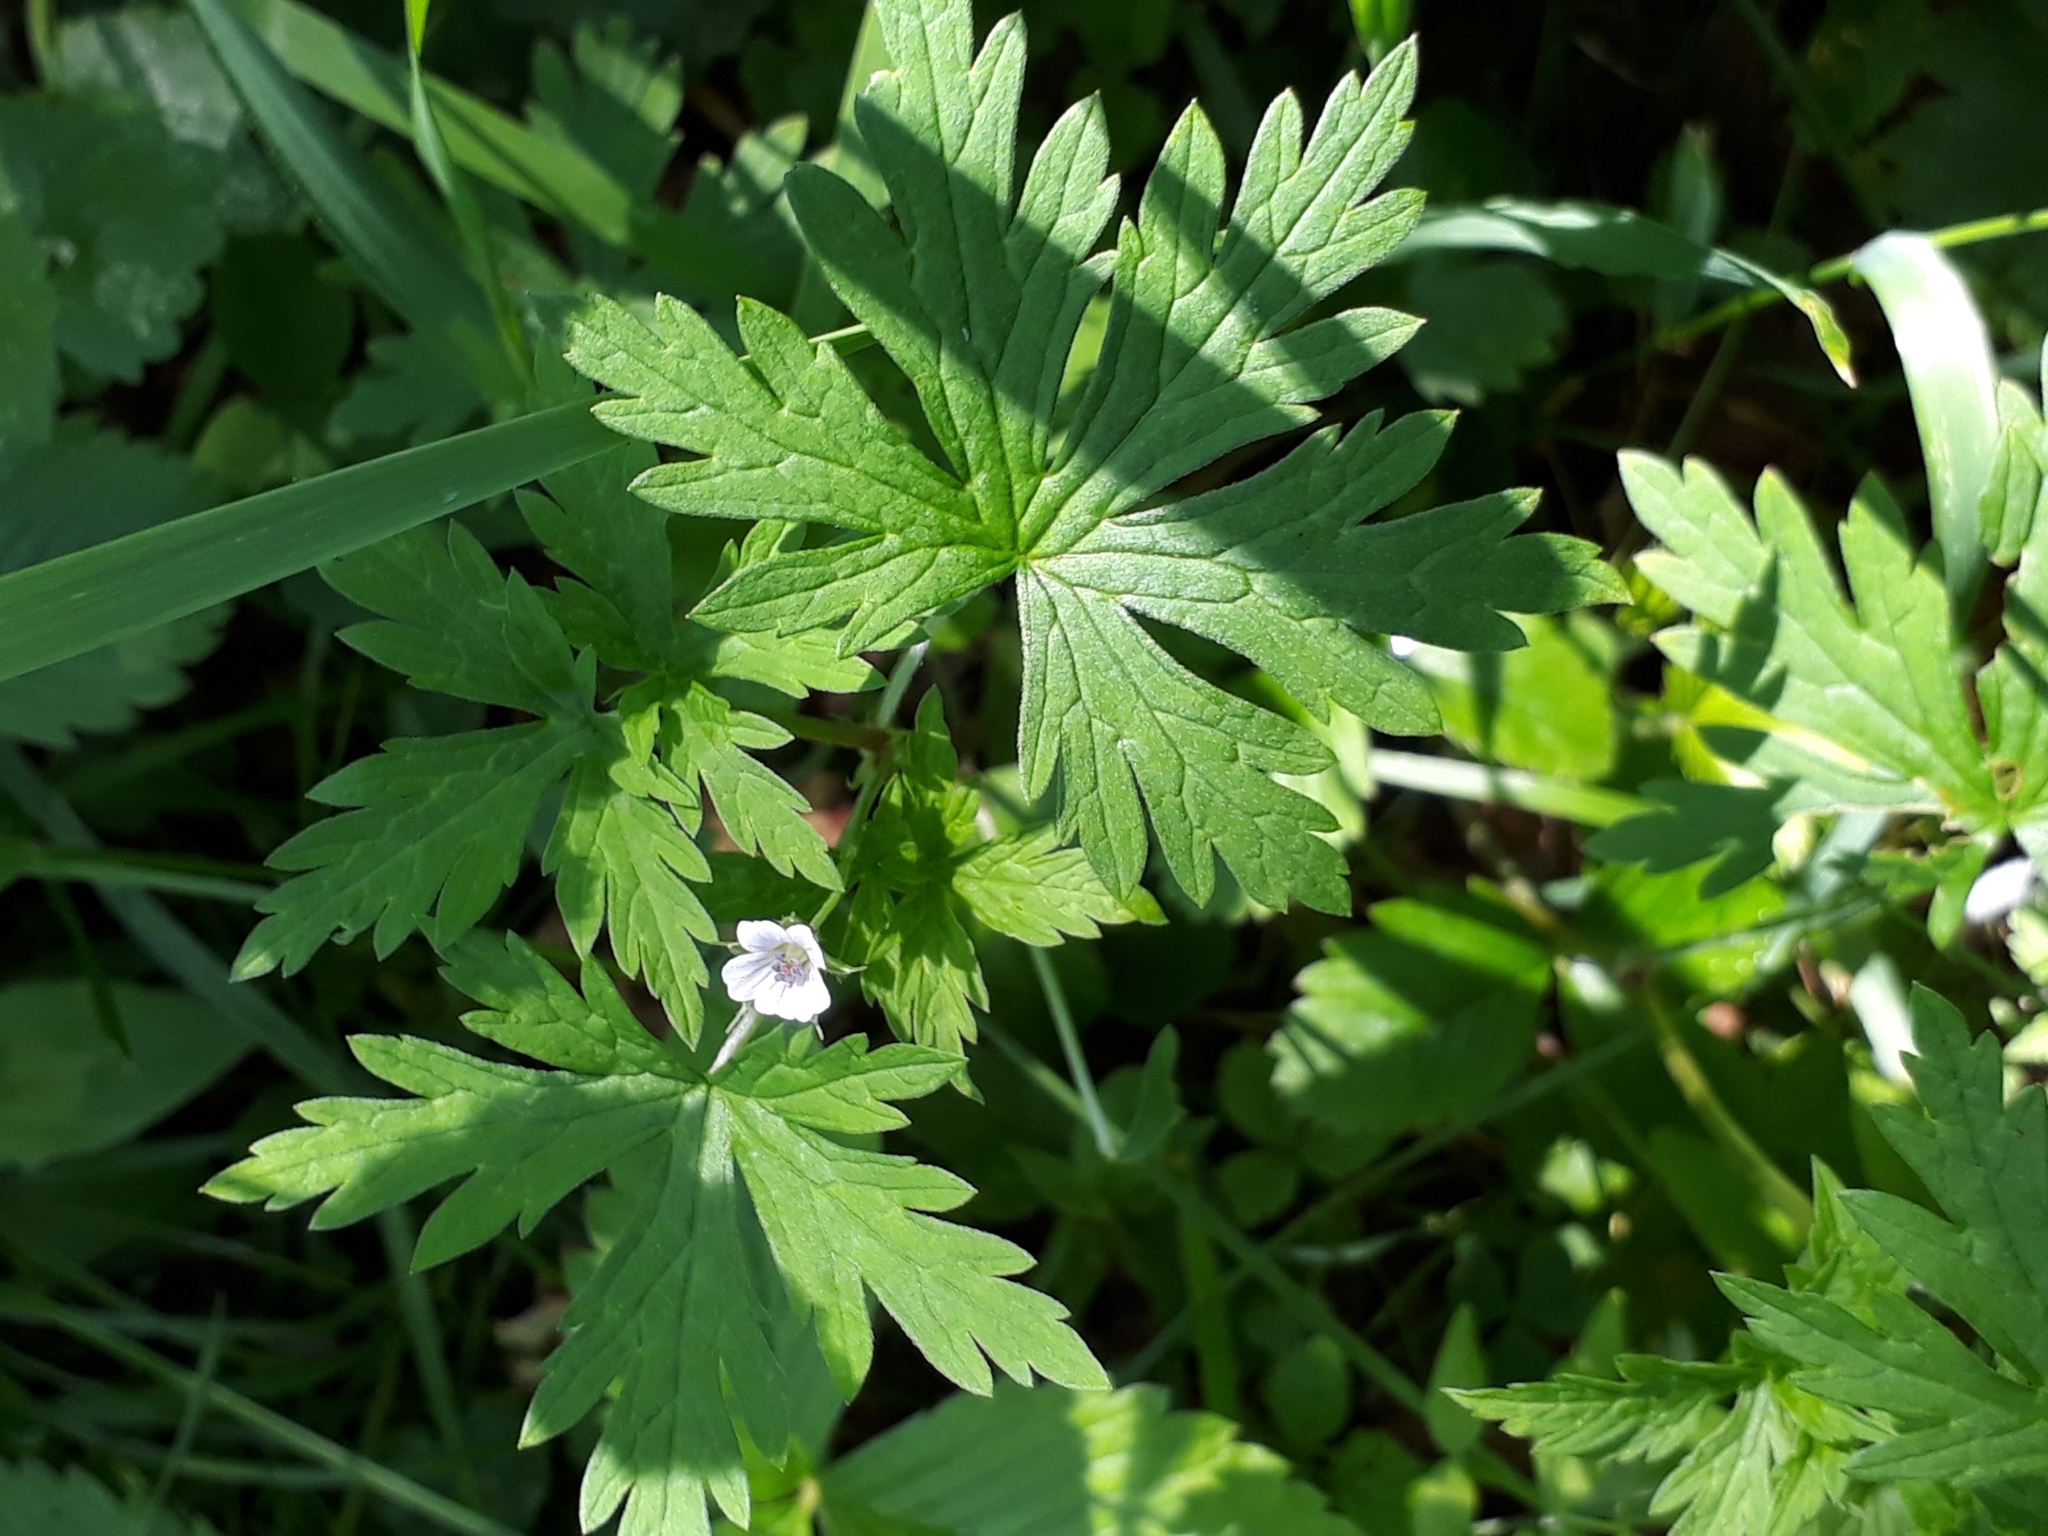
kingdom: Plantae
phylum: Tracheophyta
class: Magnoliopsida
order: Geraniales
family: Geraniaceae
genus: Geranium
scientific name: Geranium sibiricum
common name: Siberian crane's-bill
